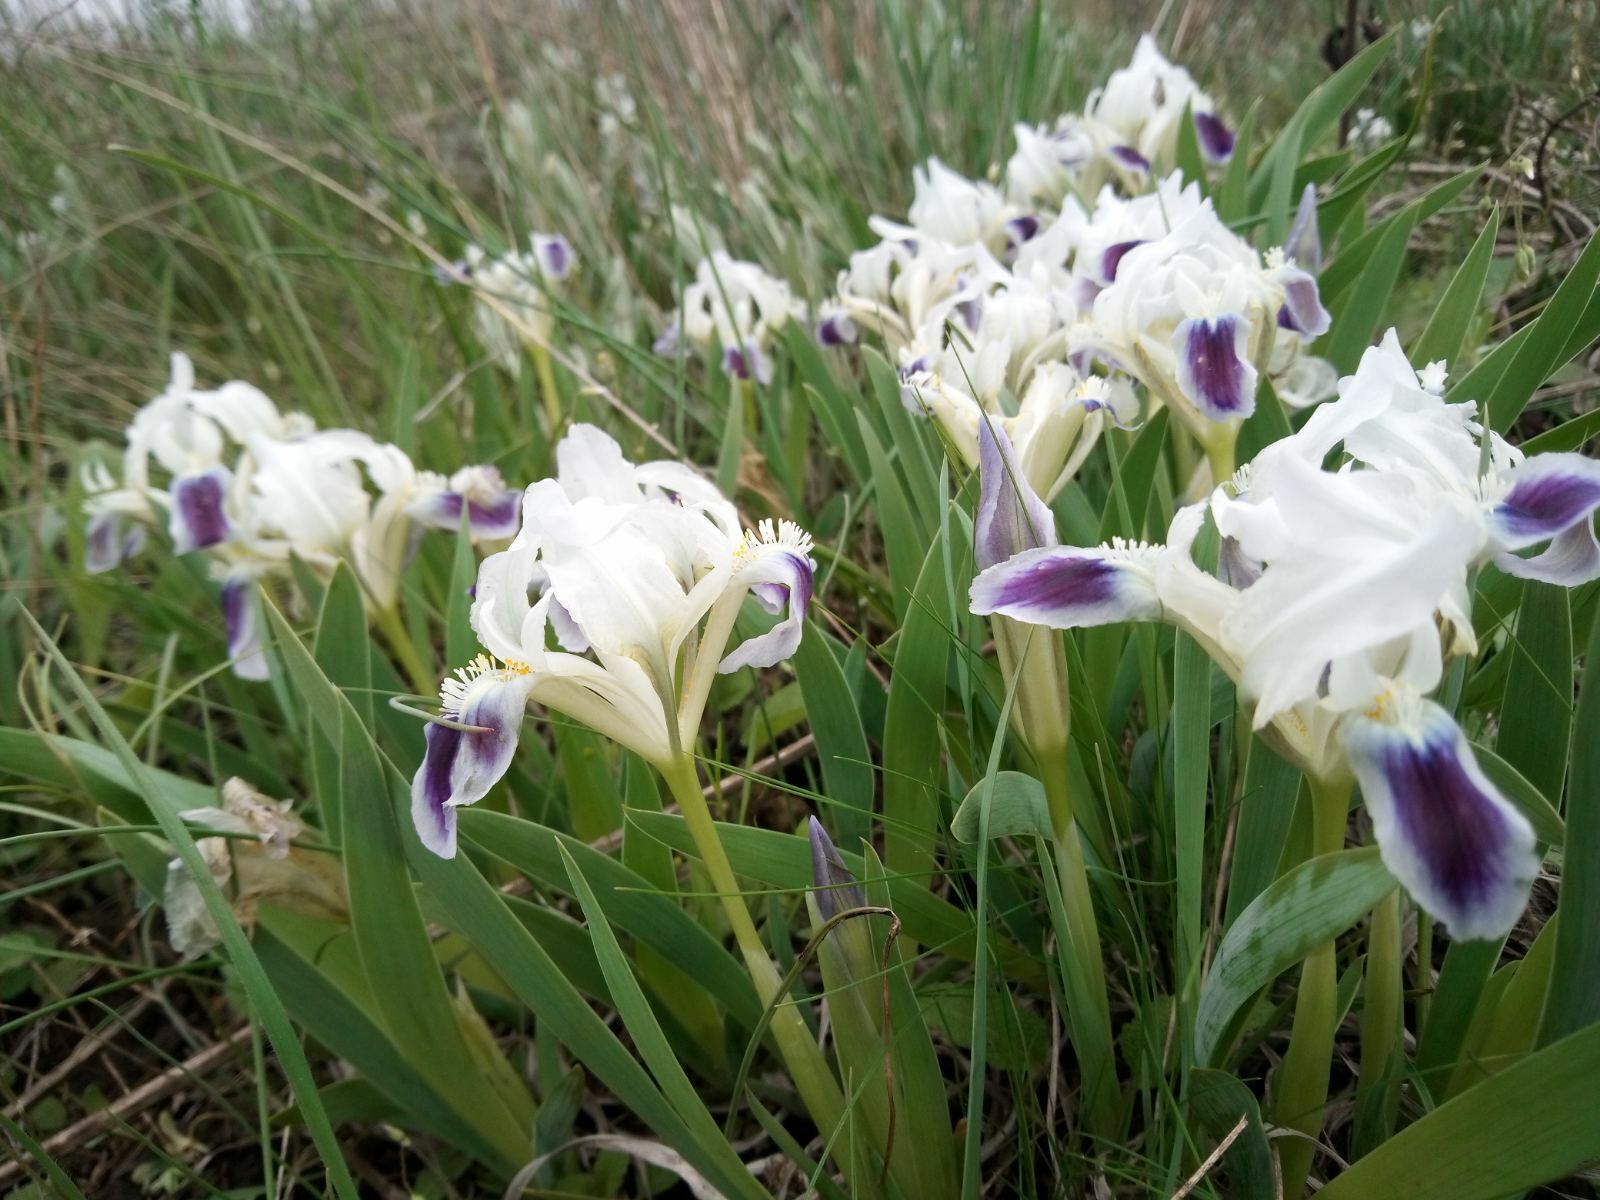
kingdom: Plantae
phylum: Tracheophyta
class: Liliopsida
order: Asparagales
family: Iridaceae
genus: Iris
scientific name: Iris pumila
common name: Dwarf iris
